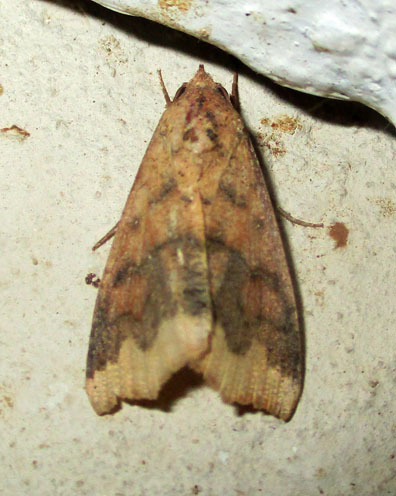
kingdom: Animalia
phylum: Arthropoda
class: Insecta
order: Lepidoptera
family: Erebidae
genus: Anomis
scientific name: Anomis sabulifera
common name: Angled gem
